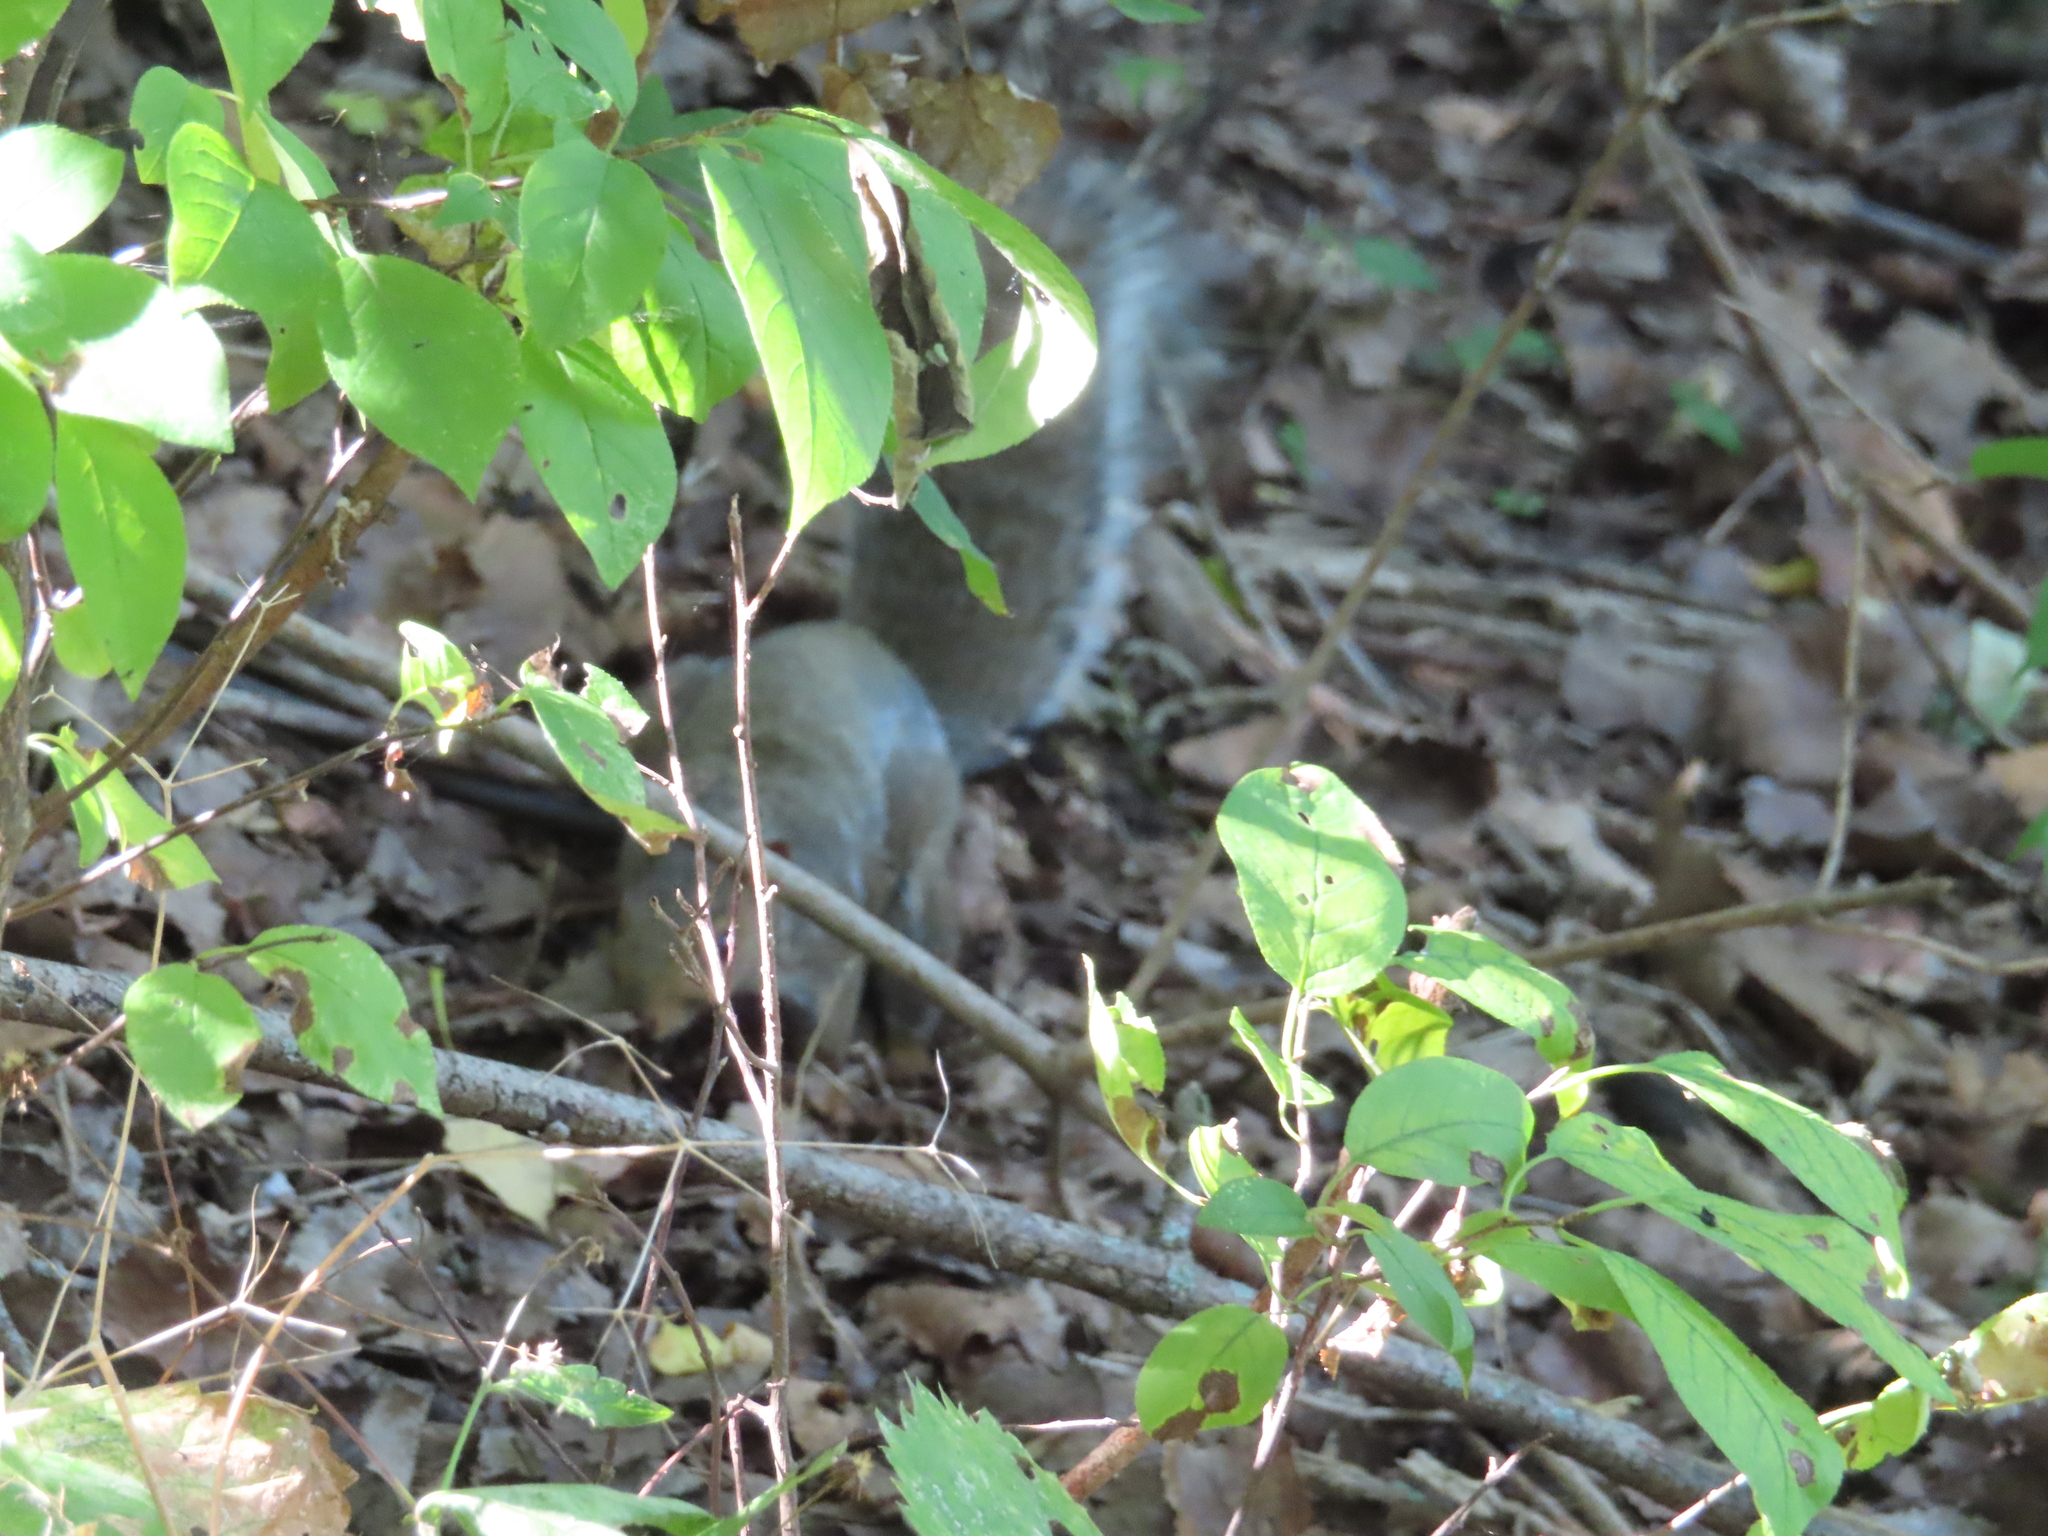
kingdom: Animalia
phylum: Chordata
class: Mammalia
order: Rodentia
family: Sciuridae
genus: Sciurus
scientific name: Sciurus carolinensis
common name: Eastern gray squirrel
